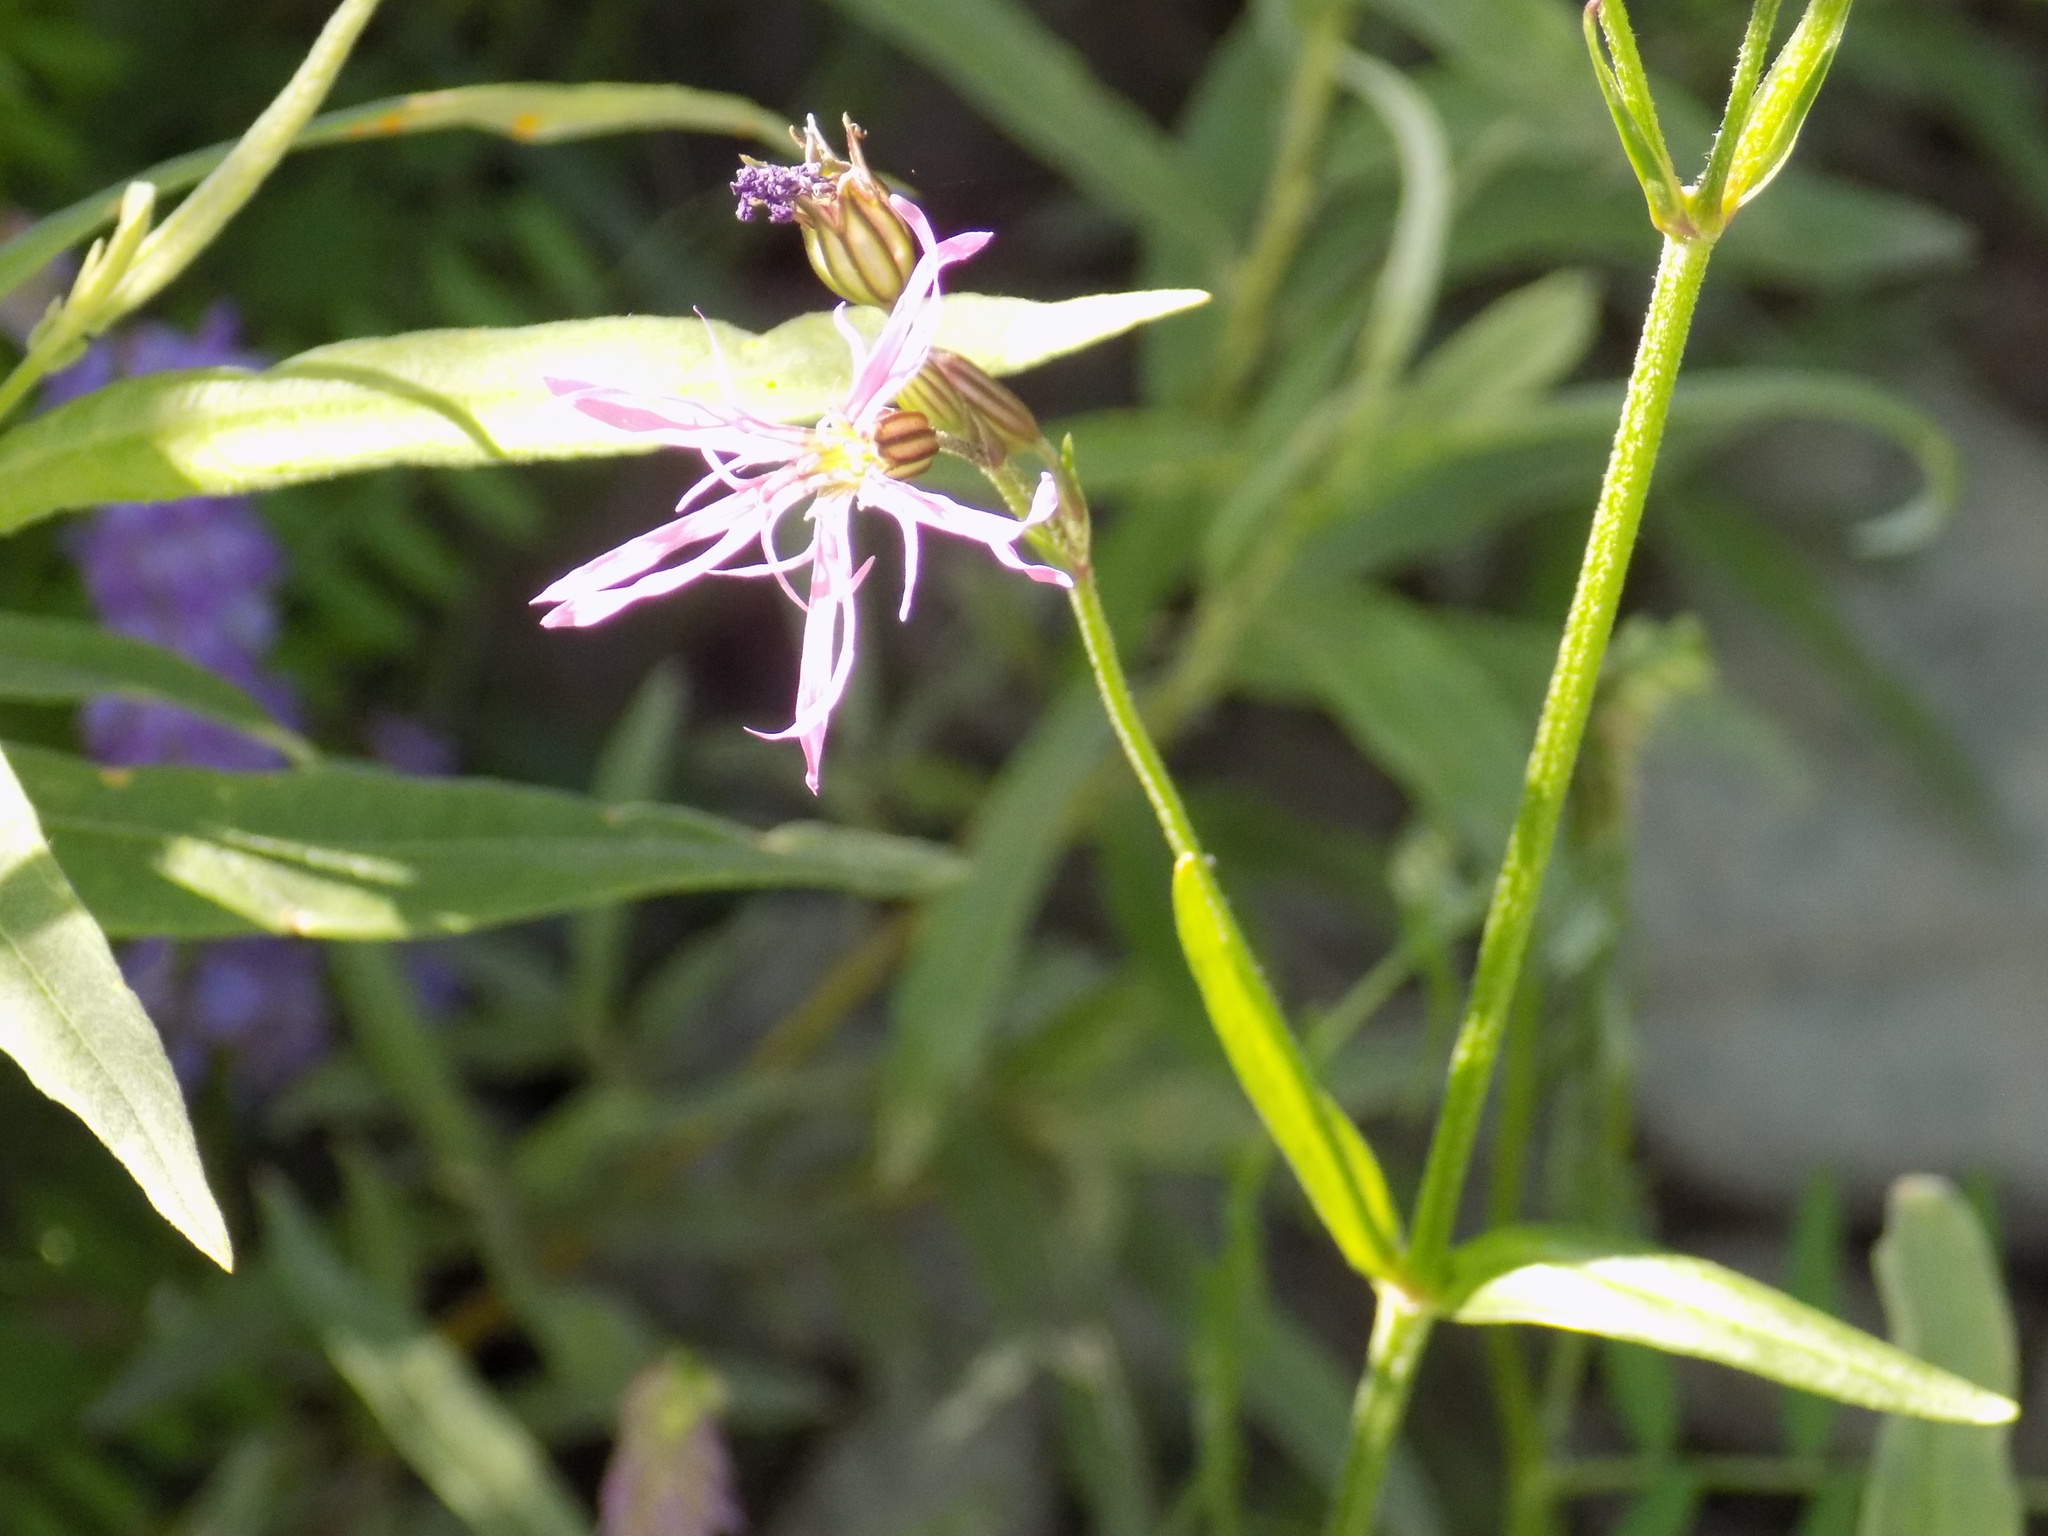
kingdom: Plantae
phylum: Tracheophyta
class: Magnoliopsida
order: Caryophyllales
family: Caryophyllaceae
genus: Silene
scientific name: Silene flos-cuculi
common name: Ragged-robin
